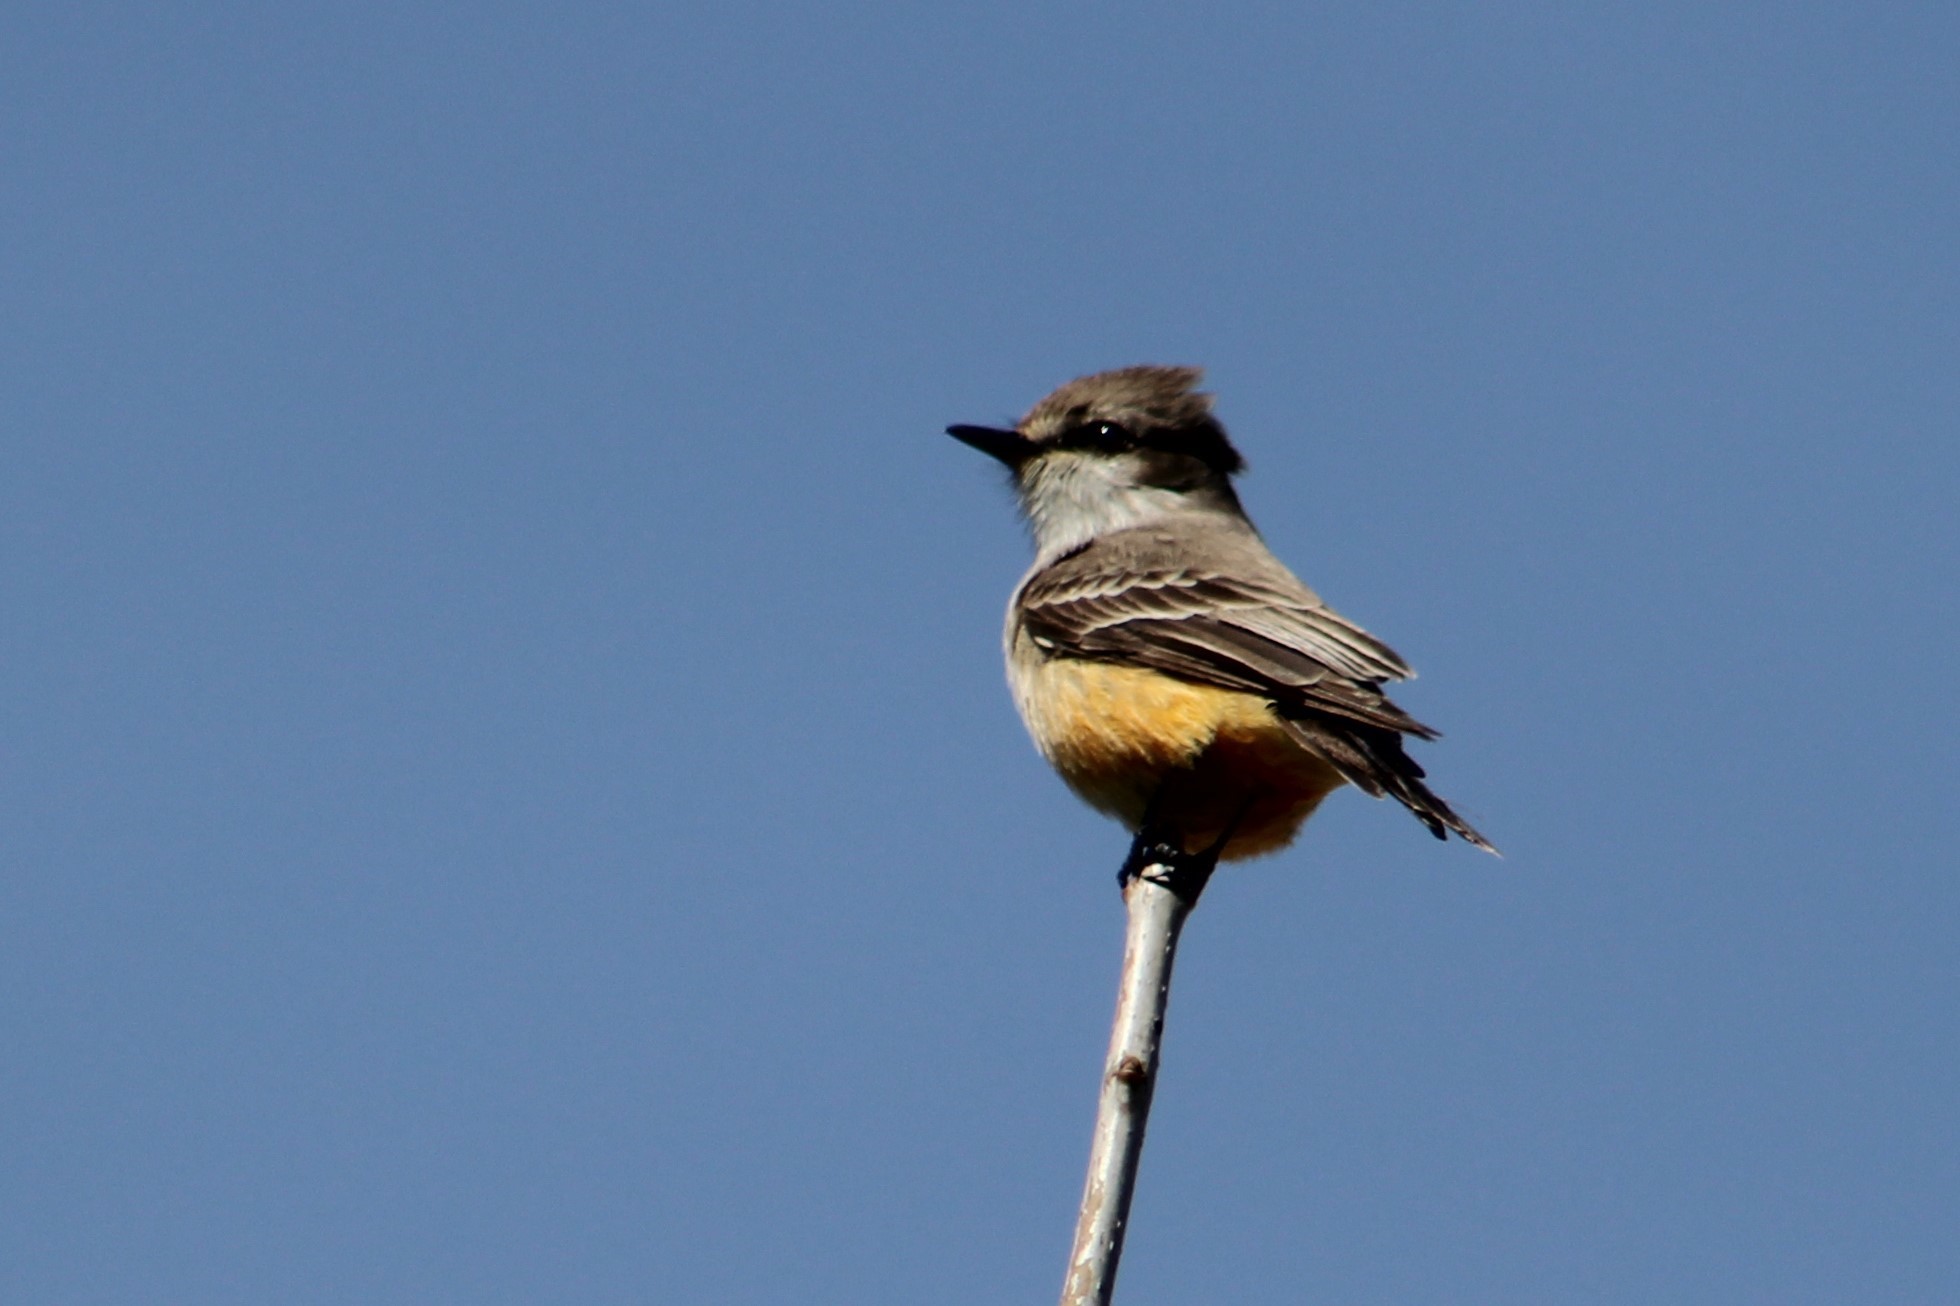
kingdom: Animalia
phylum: Chordata
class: Aves
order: Passeriformes
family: Tyrannidae
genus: Pyrocephalus
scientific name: Pyrocephalus rubinus
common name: Vermilion flycatcher
